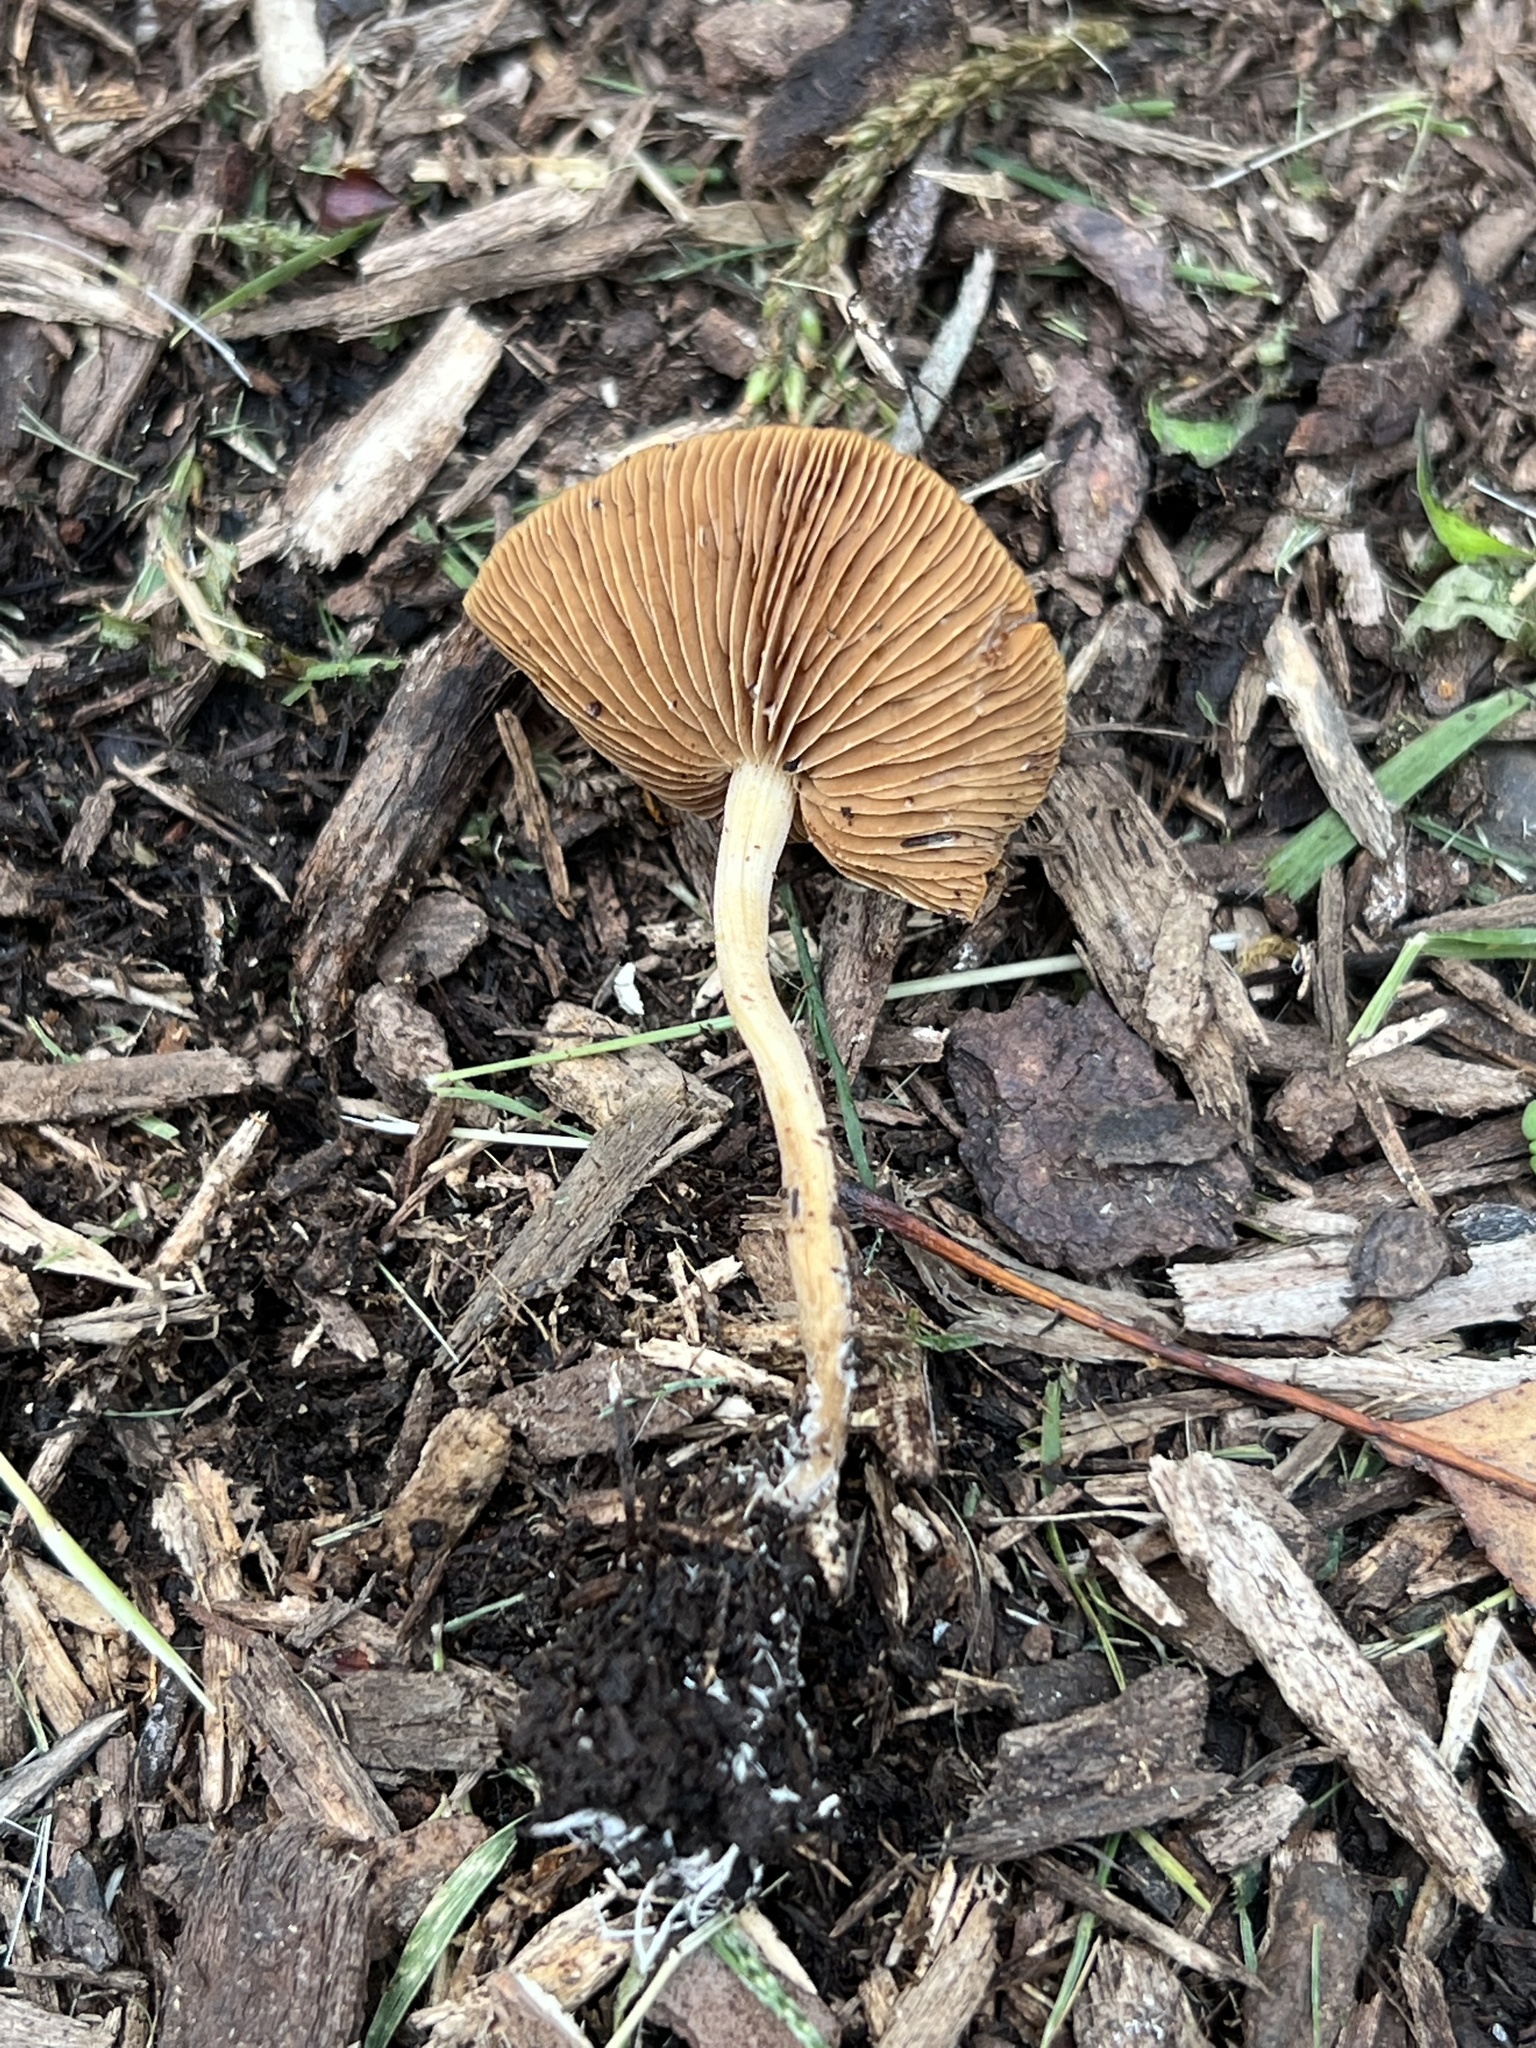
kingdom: Fungi
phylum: Basidiomycota
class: Agaricomycetes
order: Agaricales
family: Strophariaceae
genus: Agrocybe
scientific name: Agrocybe arvalis
